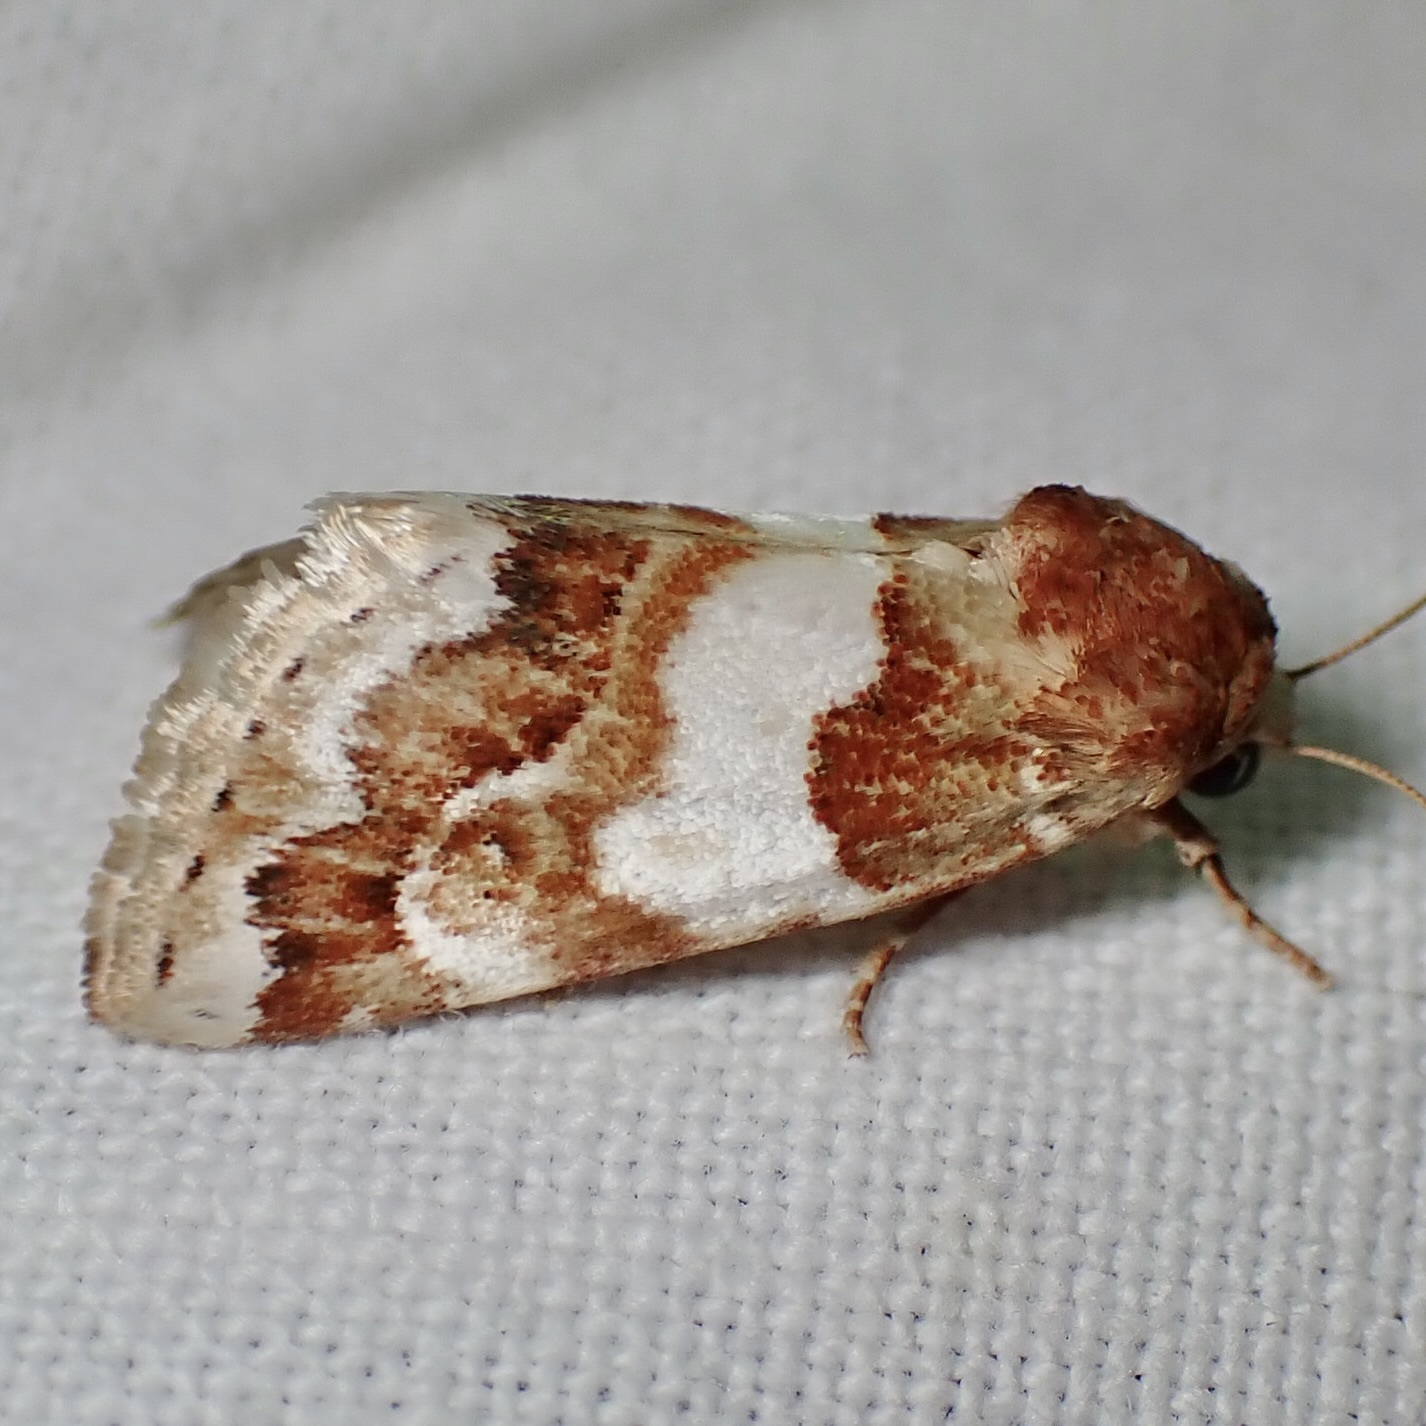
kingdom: Animalia
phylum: Arthropoda
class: Insecta
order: Lepidoptera
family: Noctuidae
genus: Schinia
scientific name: Schinia argentifascia
